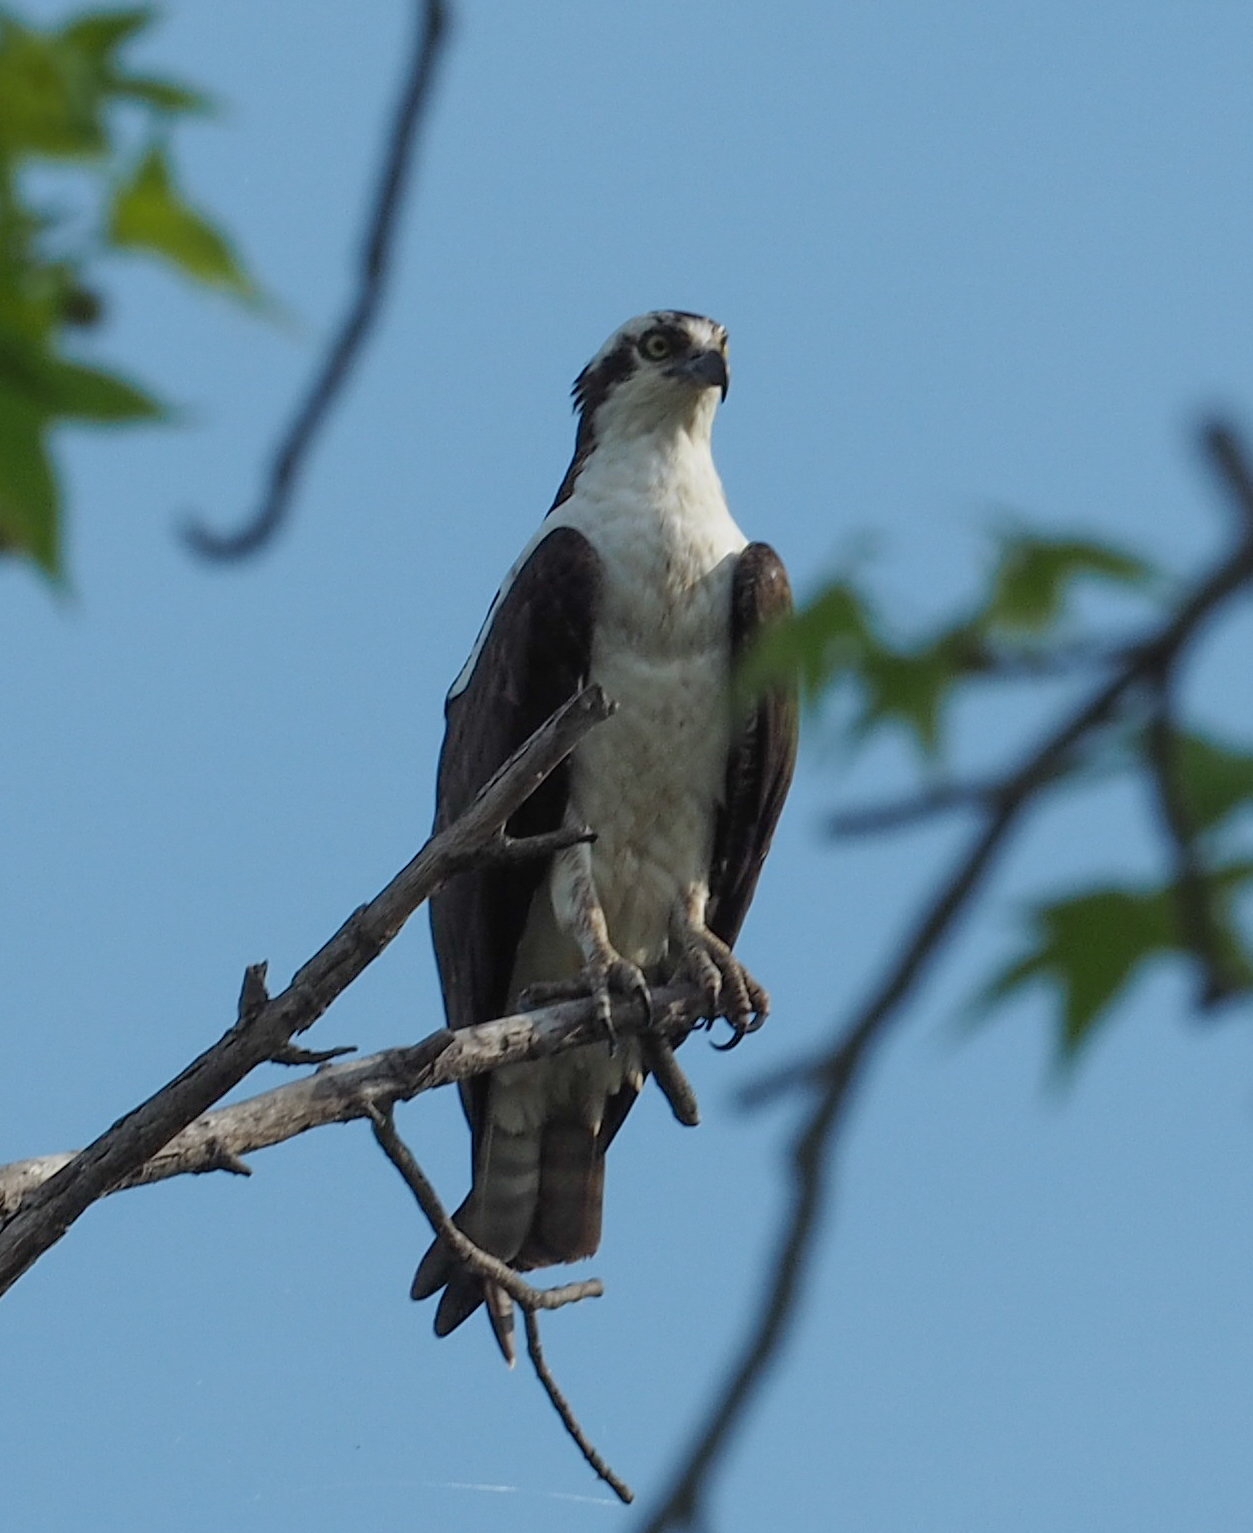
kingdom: Animalia
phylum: Chordata
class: Aves
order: Accipitriformes
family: Pandionidae
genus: Pandion
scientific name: Pandion haliaetus
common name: Osprey
